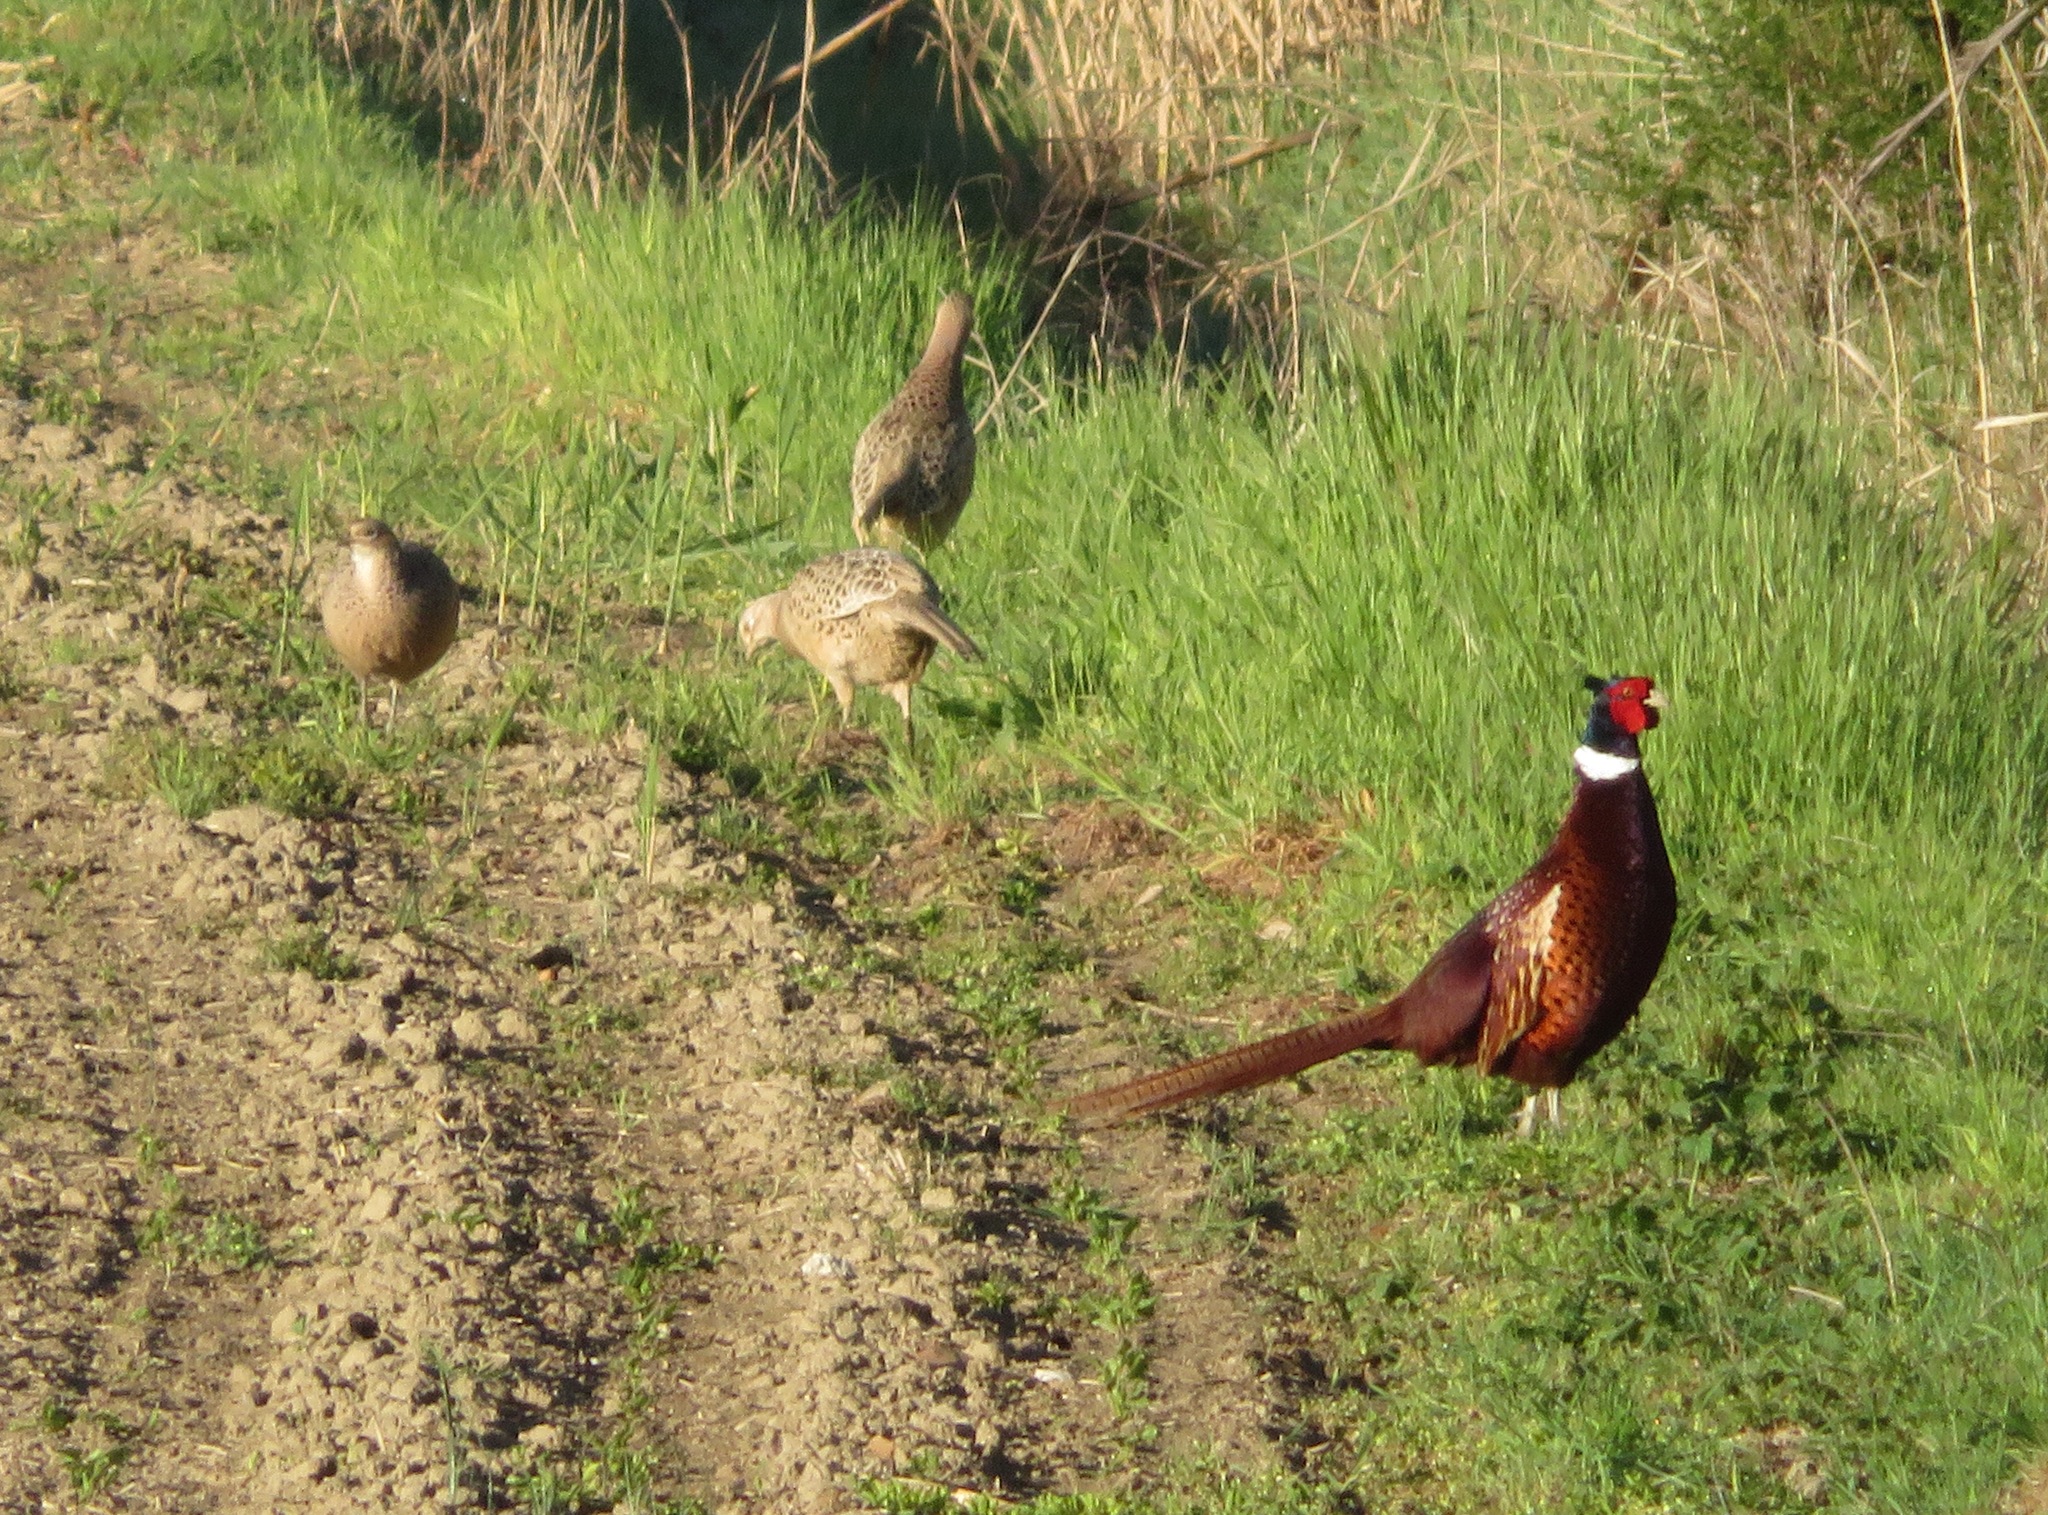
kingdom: Animalia
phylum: Chordata
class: Aves
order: Galliformes
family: Phasianidae
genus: Phasianus
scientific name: Phasianus colchicus
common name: Common pheasant
